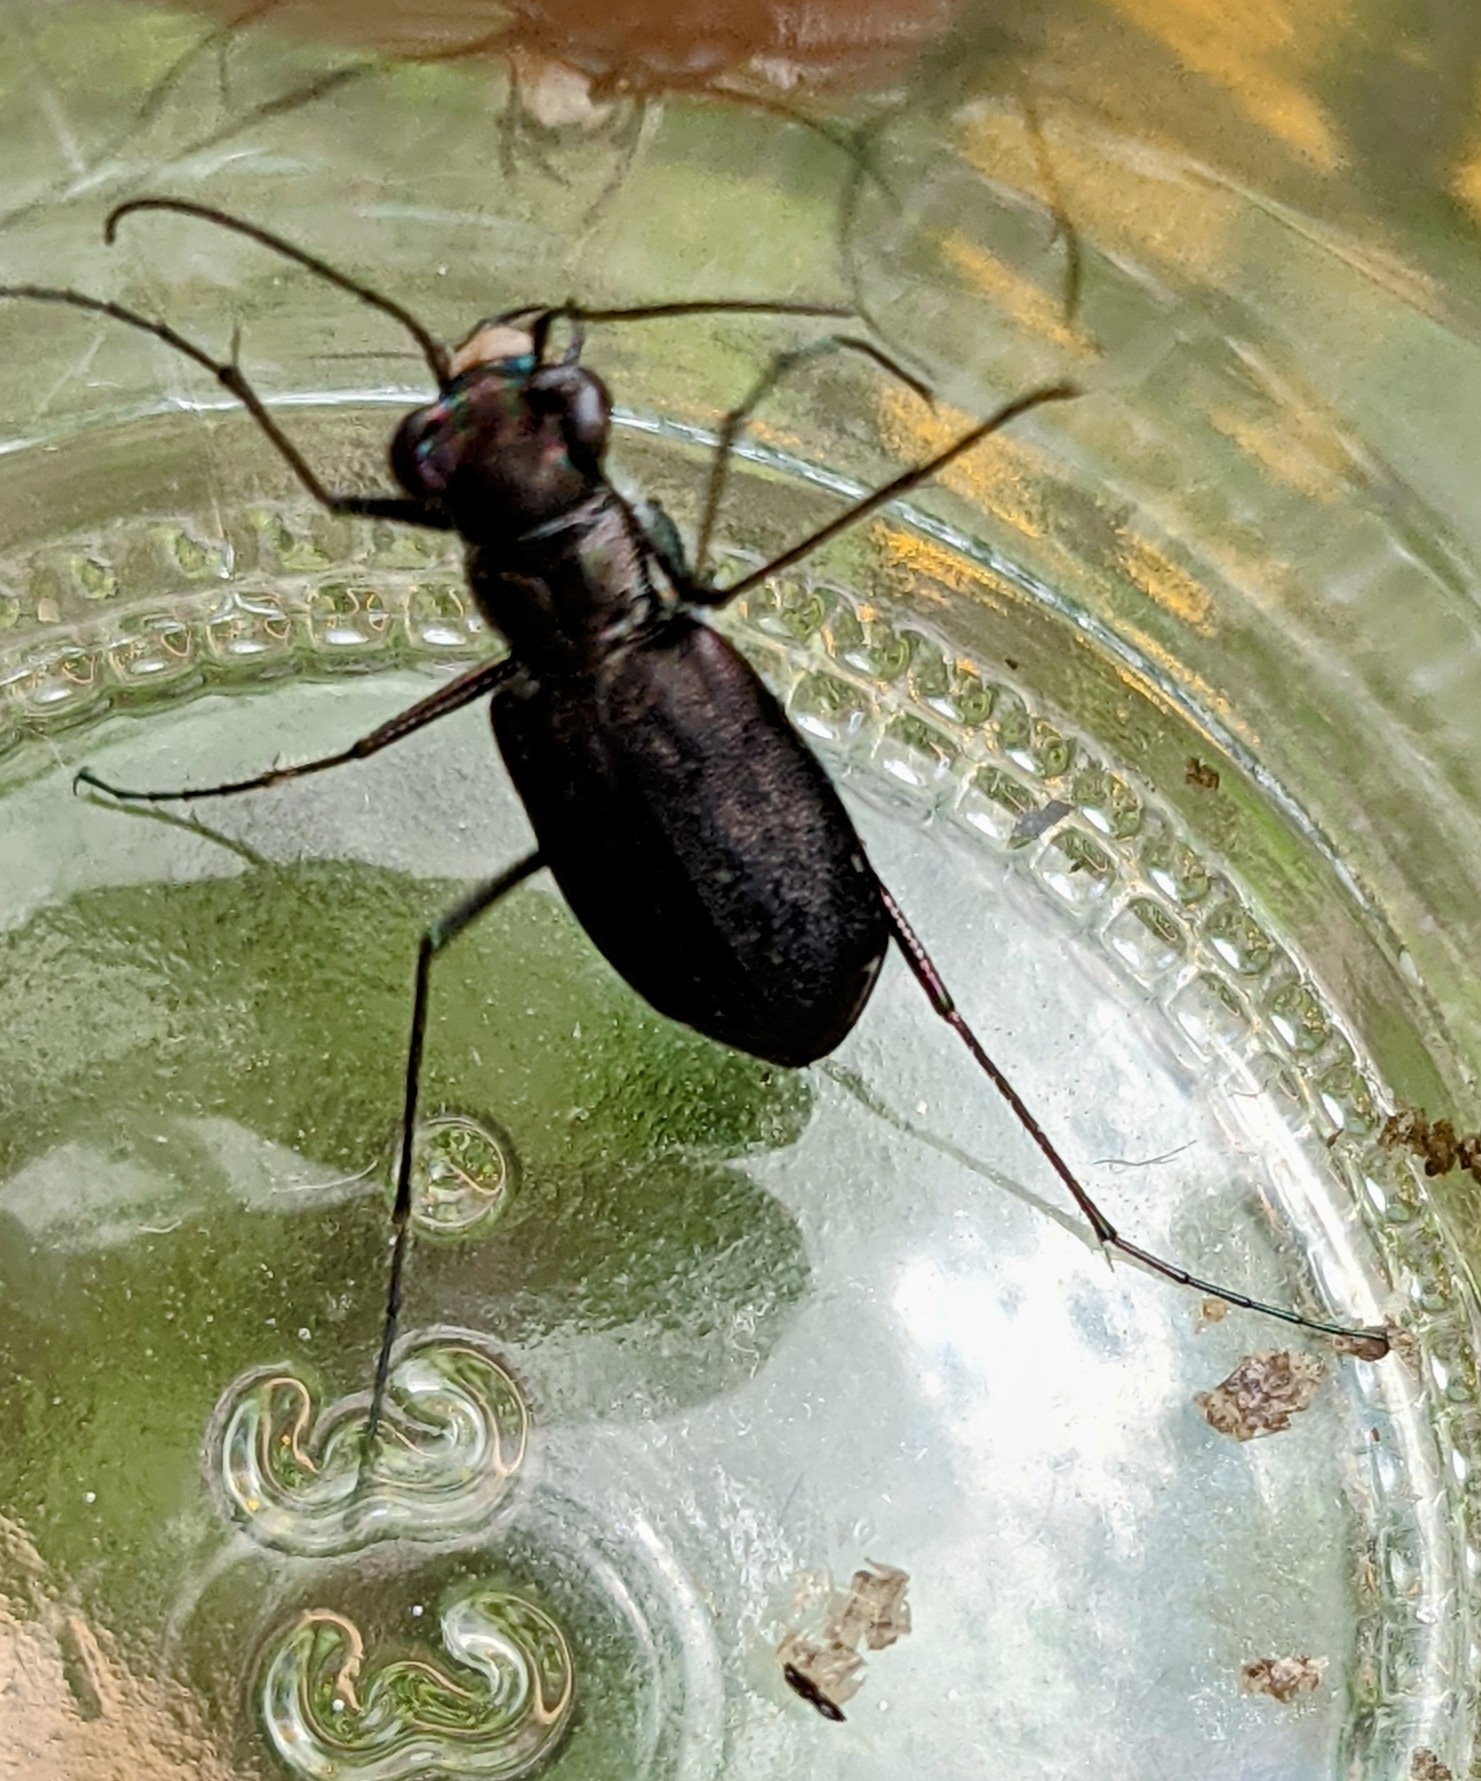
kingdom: Animalia
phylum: Arthropoda
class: Insecta
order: Coleoptera
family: Carabidae
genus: Cicindela
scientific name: Cicindela punctulata
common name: Punctured tiger beetle
